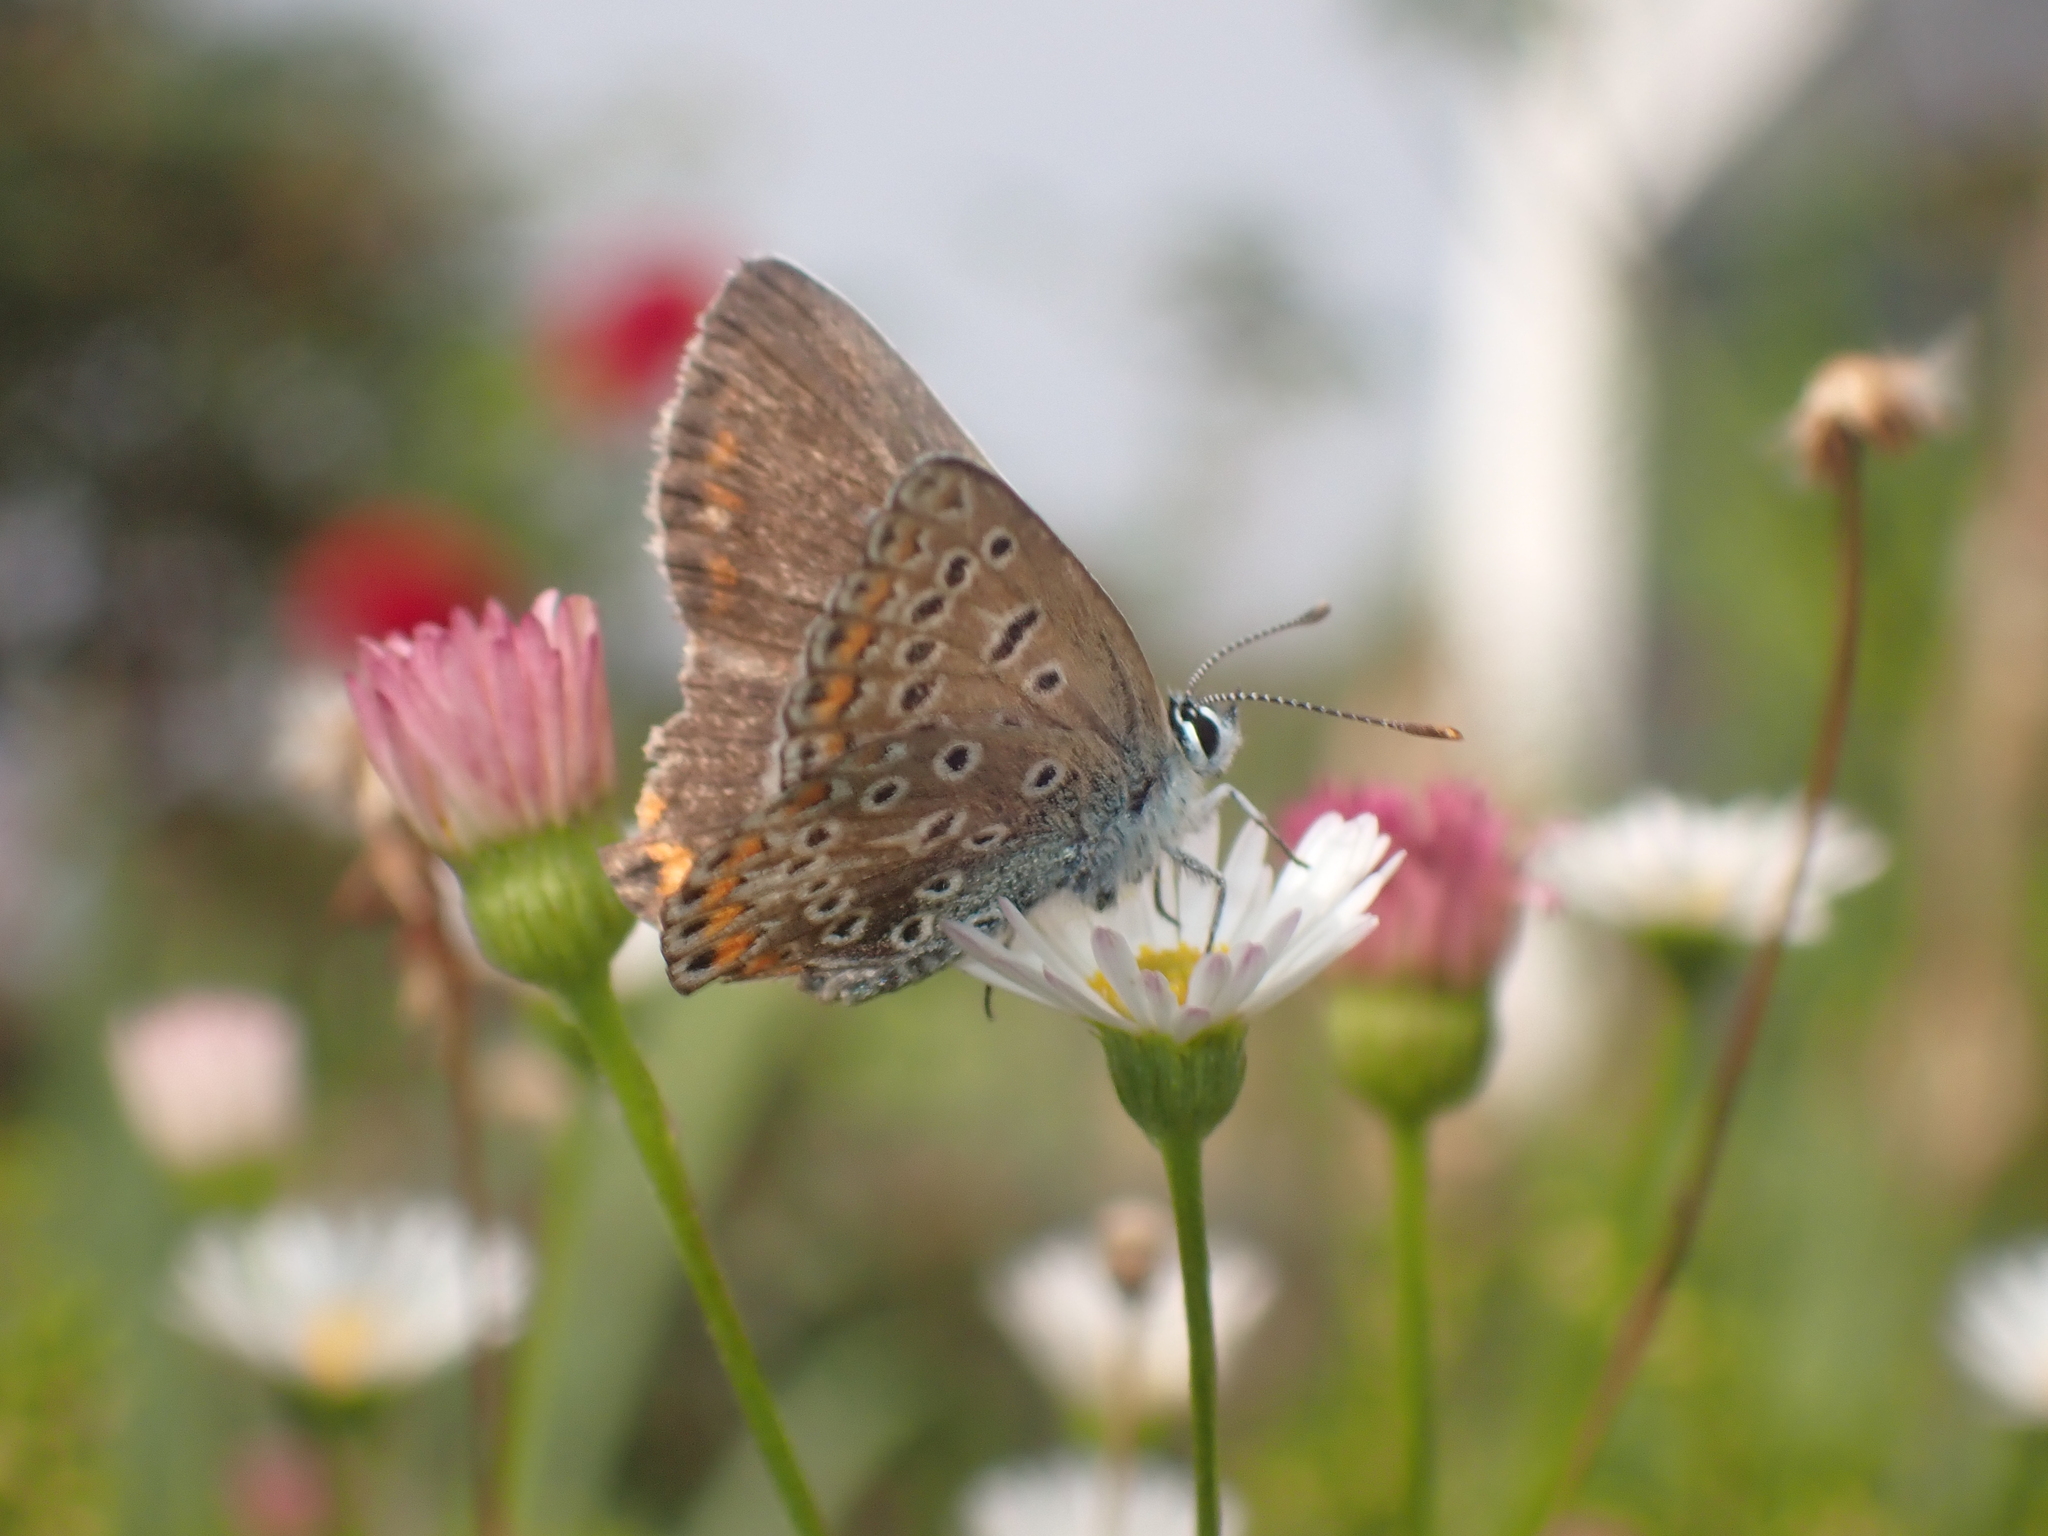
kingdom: Animalia
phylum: Arthropoda
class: Insecta
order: Lepidoptera
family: Lycaenidae
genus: Polyommatus
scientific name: Polyommatus icarus
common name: Common blue
